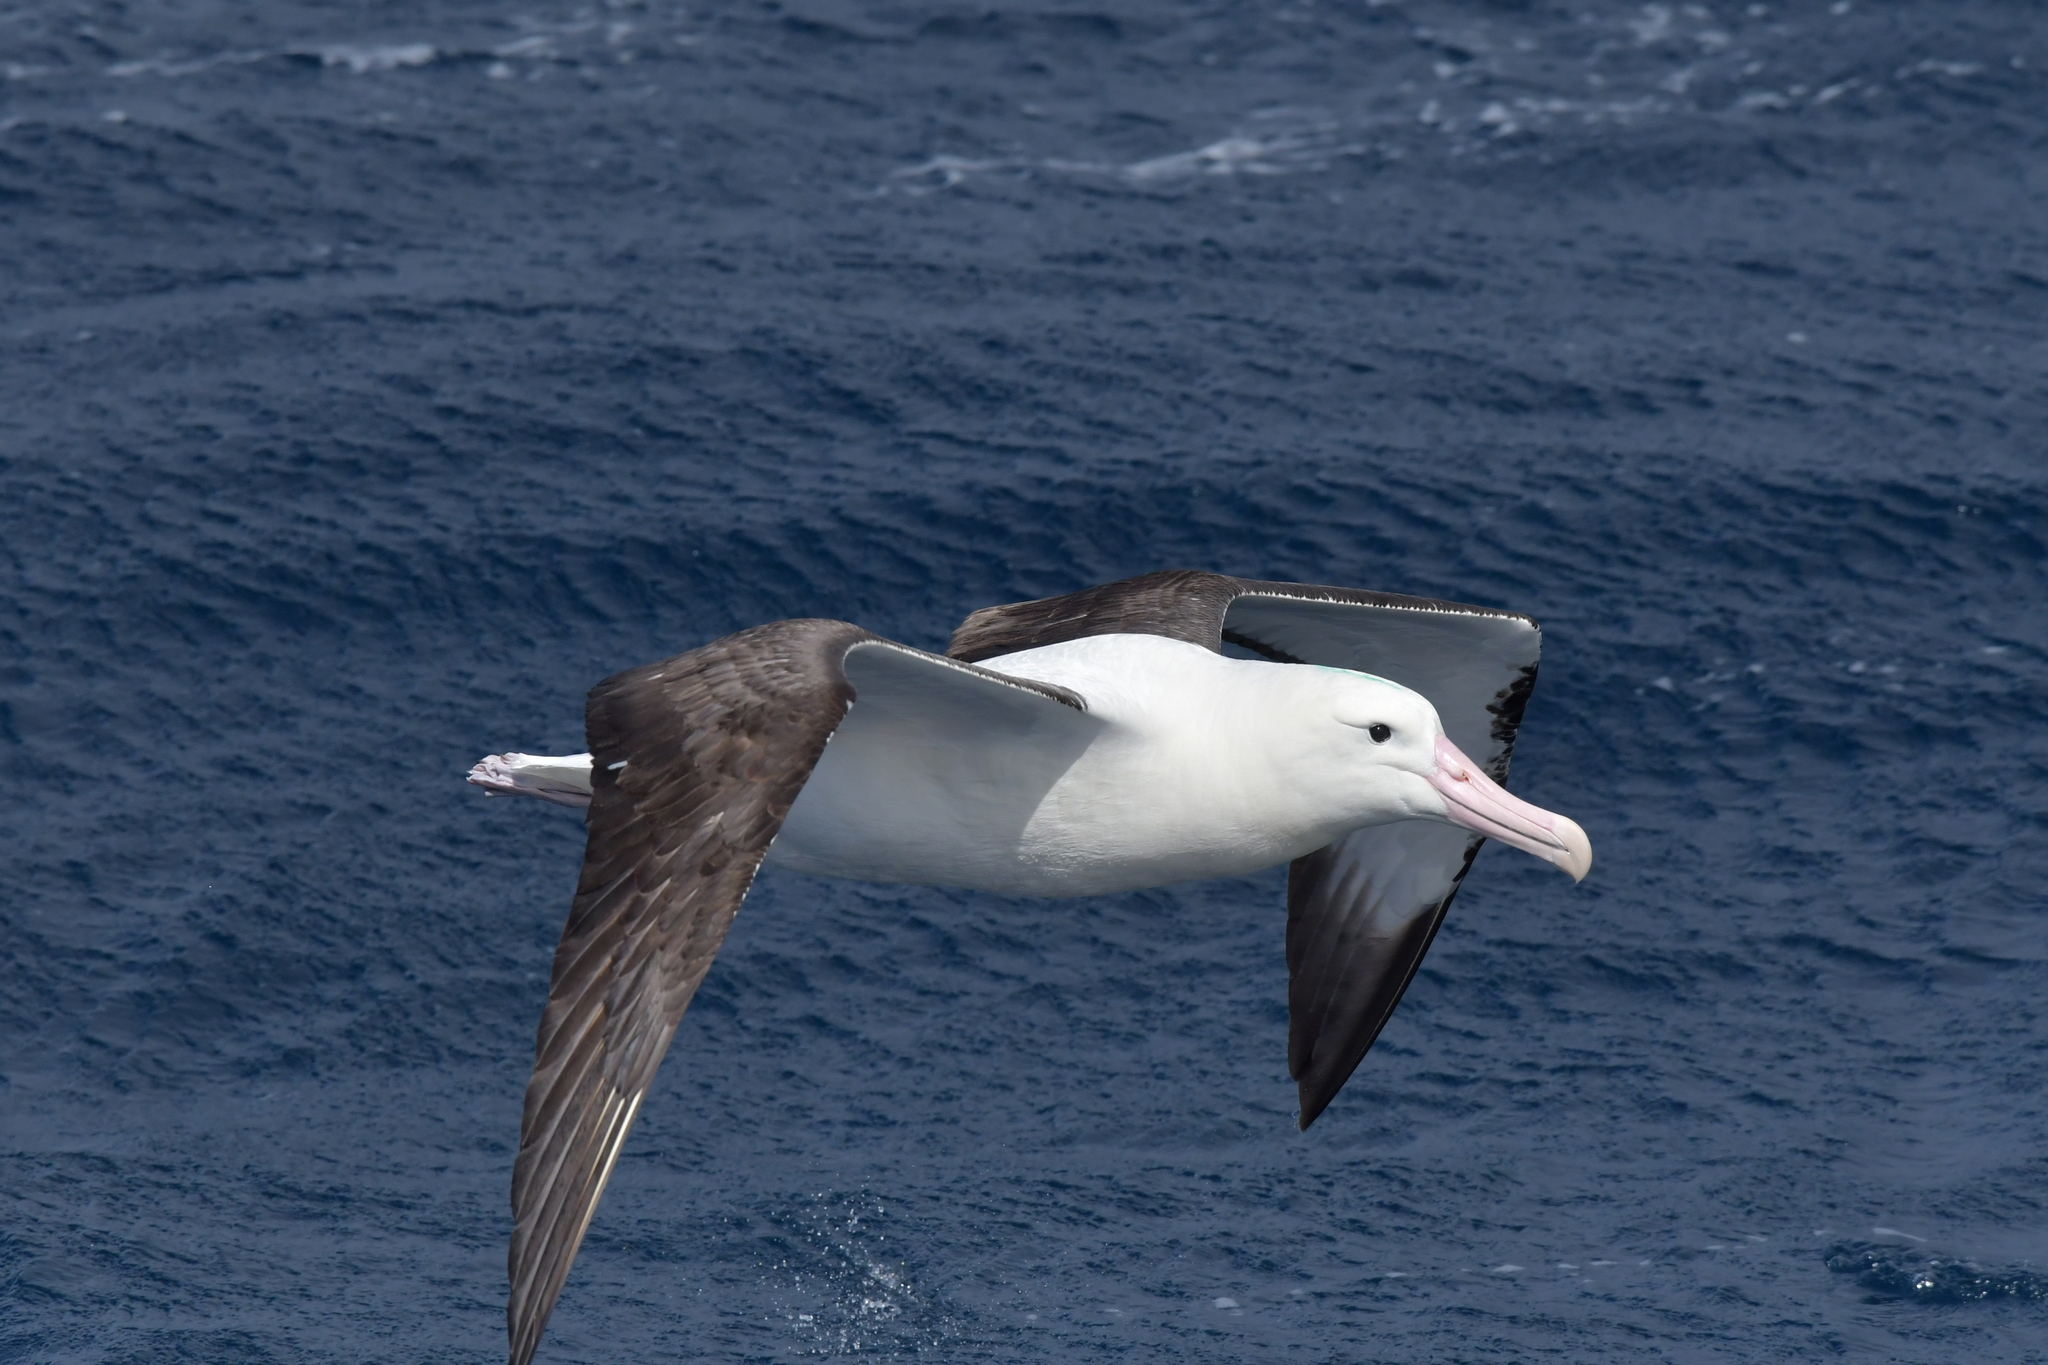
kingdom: Animalia
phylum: Chordata
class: Aves
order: Procellariiformes
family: Diomedeidae
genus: Diomedea
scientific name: Diomedea sanfordi
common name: Northern royal albatross
